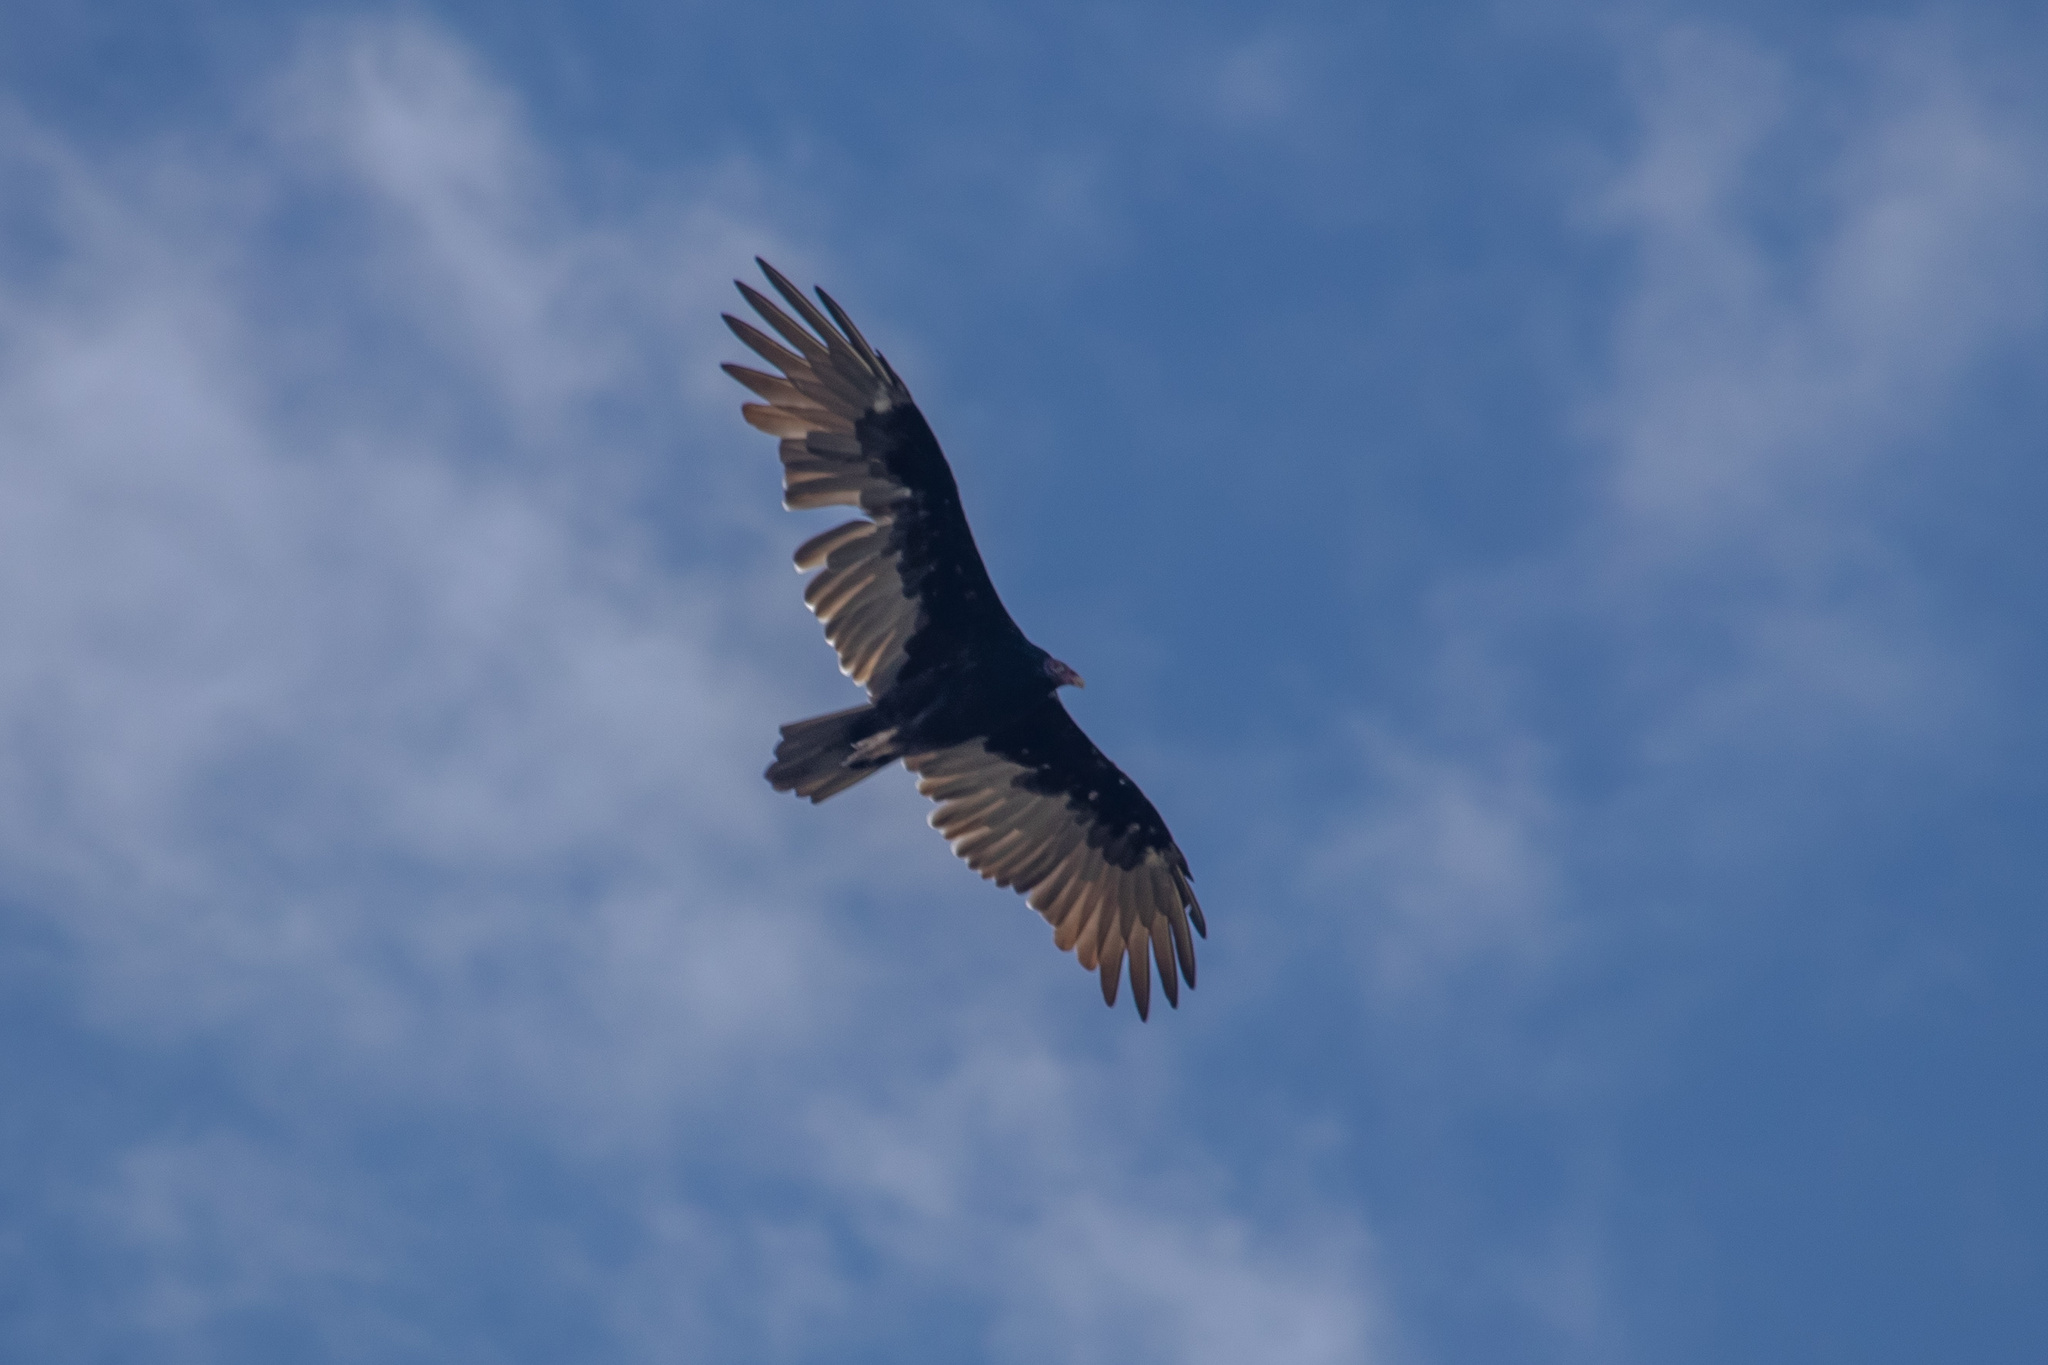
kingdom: Animalia
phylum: Chordata
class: Aves
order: Accipitriformes
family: Cathartidae
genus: Cathartes
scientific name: Cathartes aura
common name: Turkey vulture
